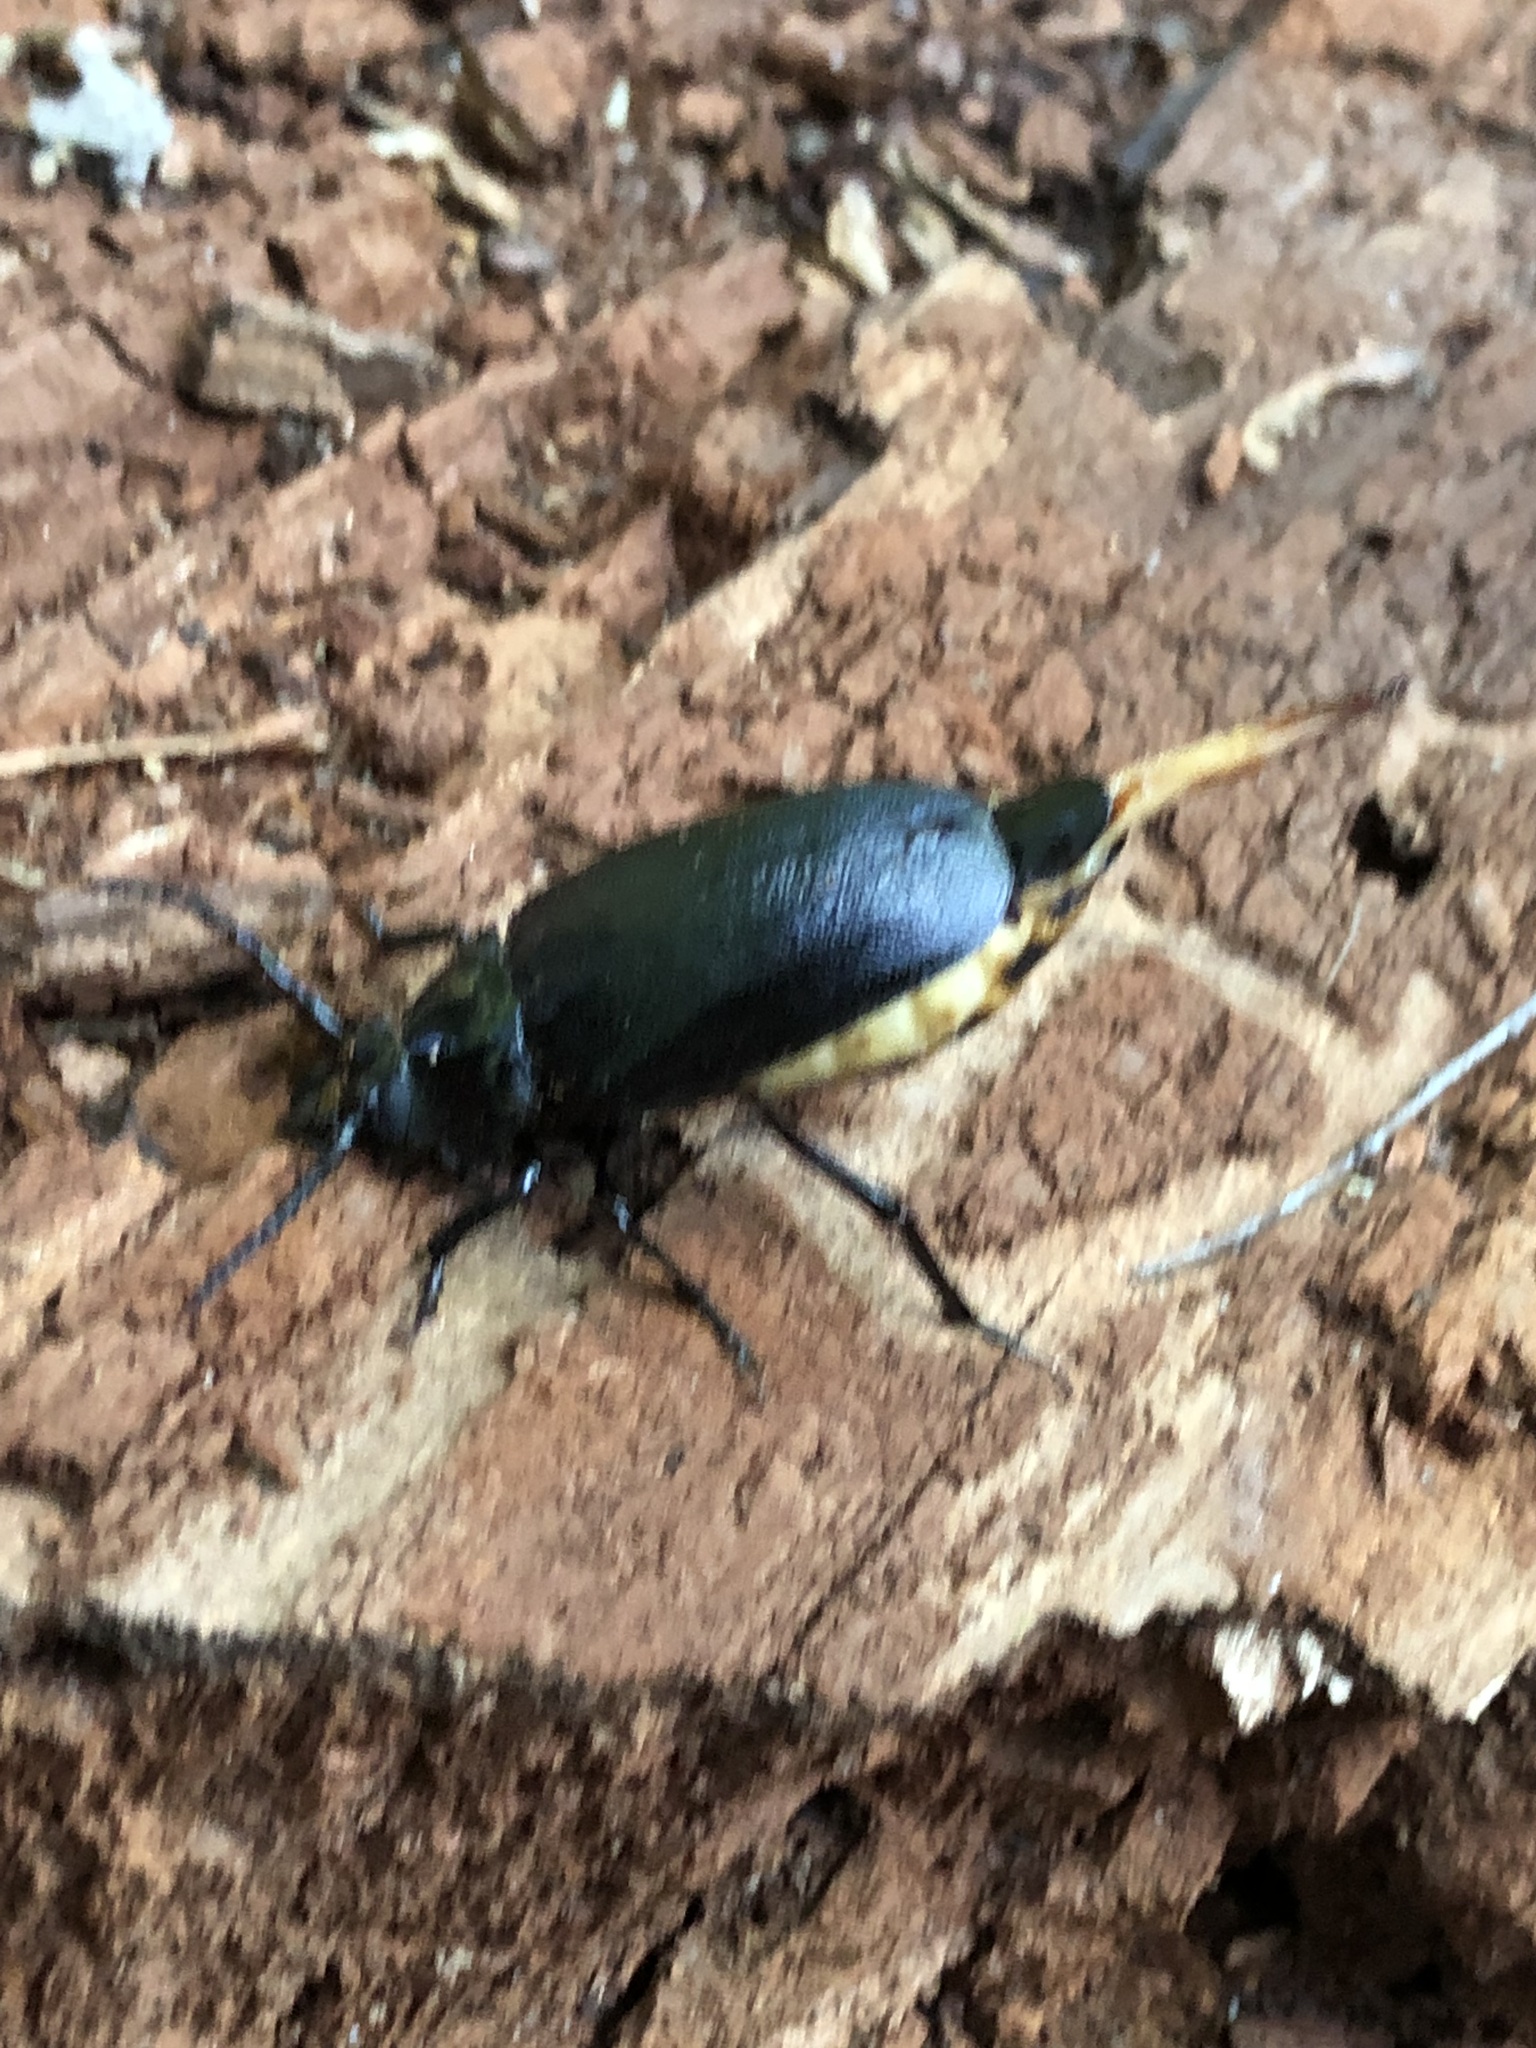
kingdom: Animalia
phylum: Arthropoda
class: Insecta
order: Coleoptera
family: Cerambycidae
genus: Prionus
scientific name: Prionus laticollis
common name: Broad necked prionus
